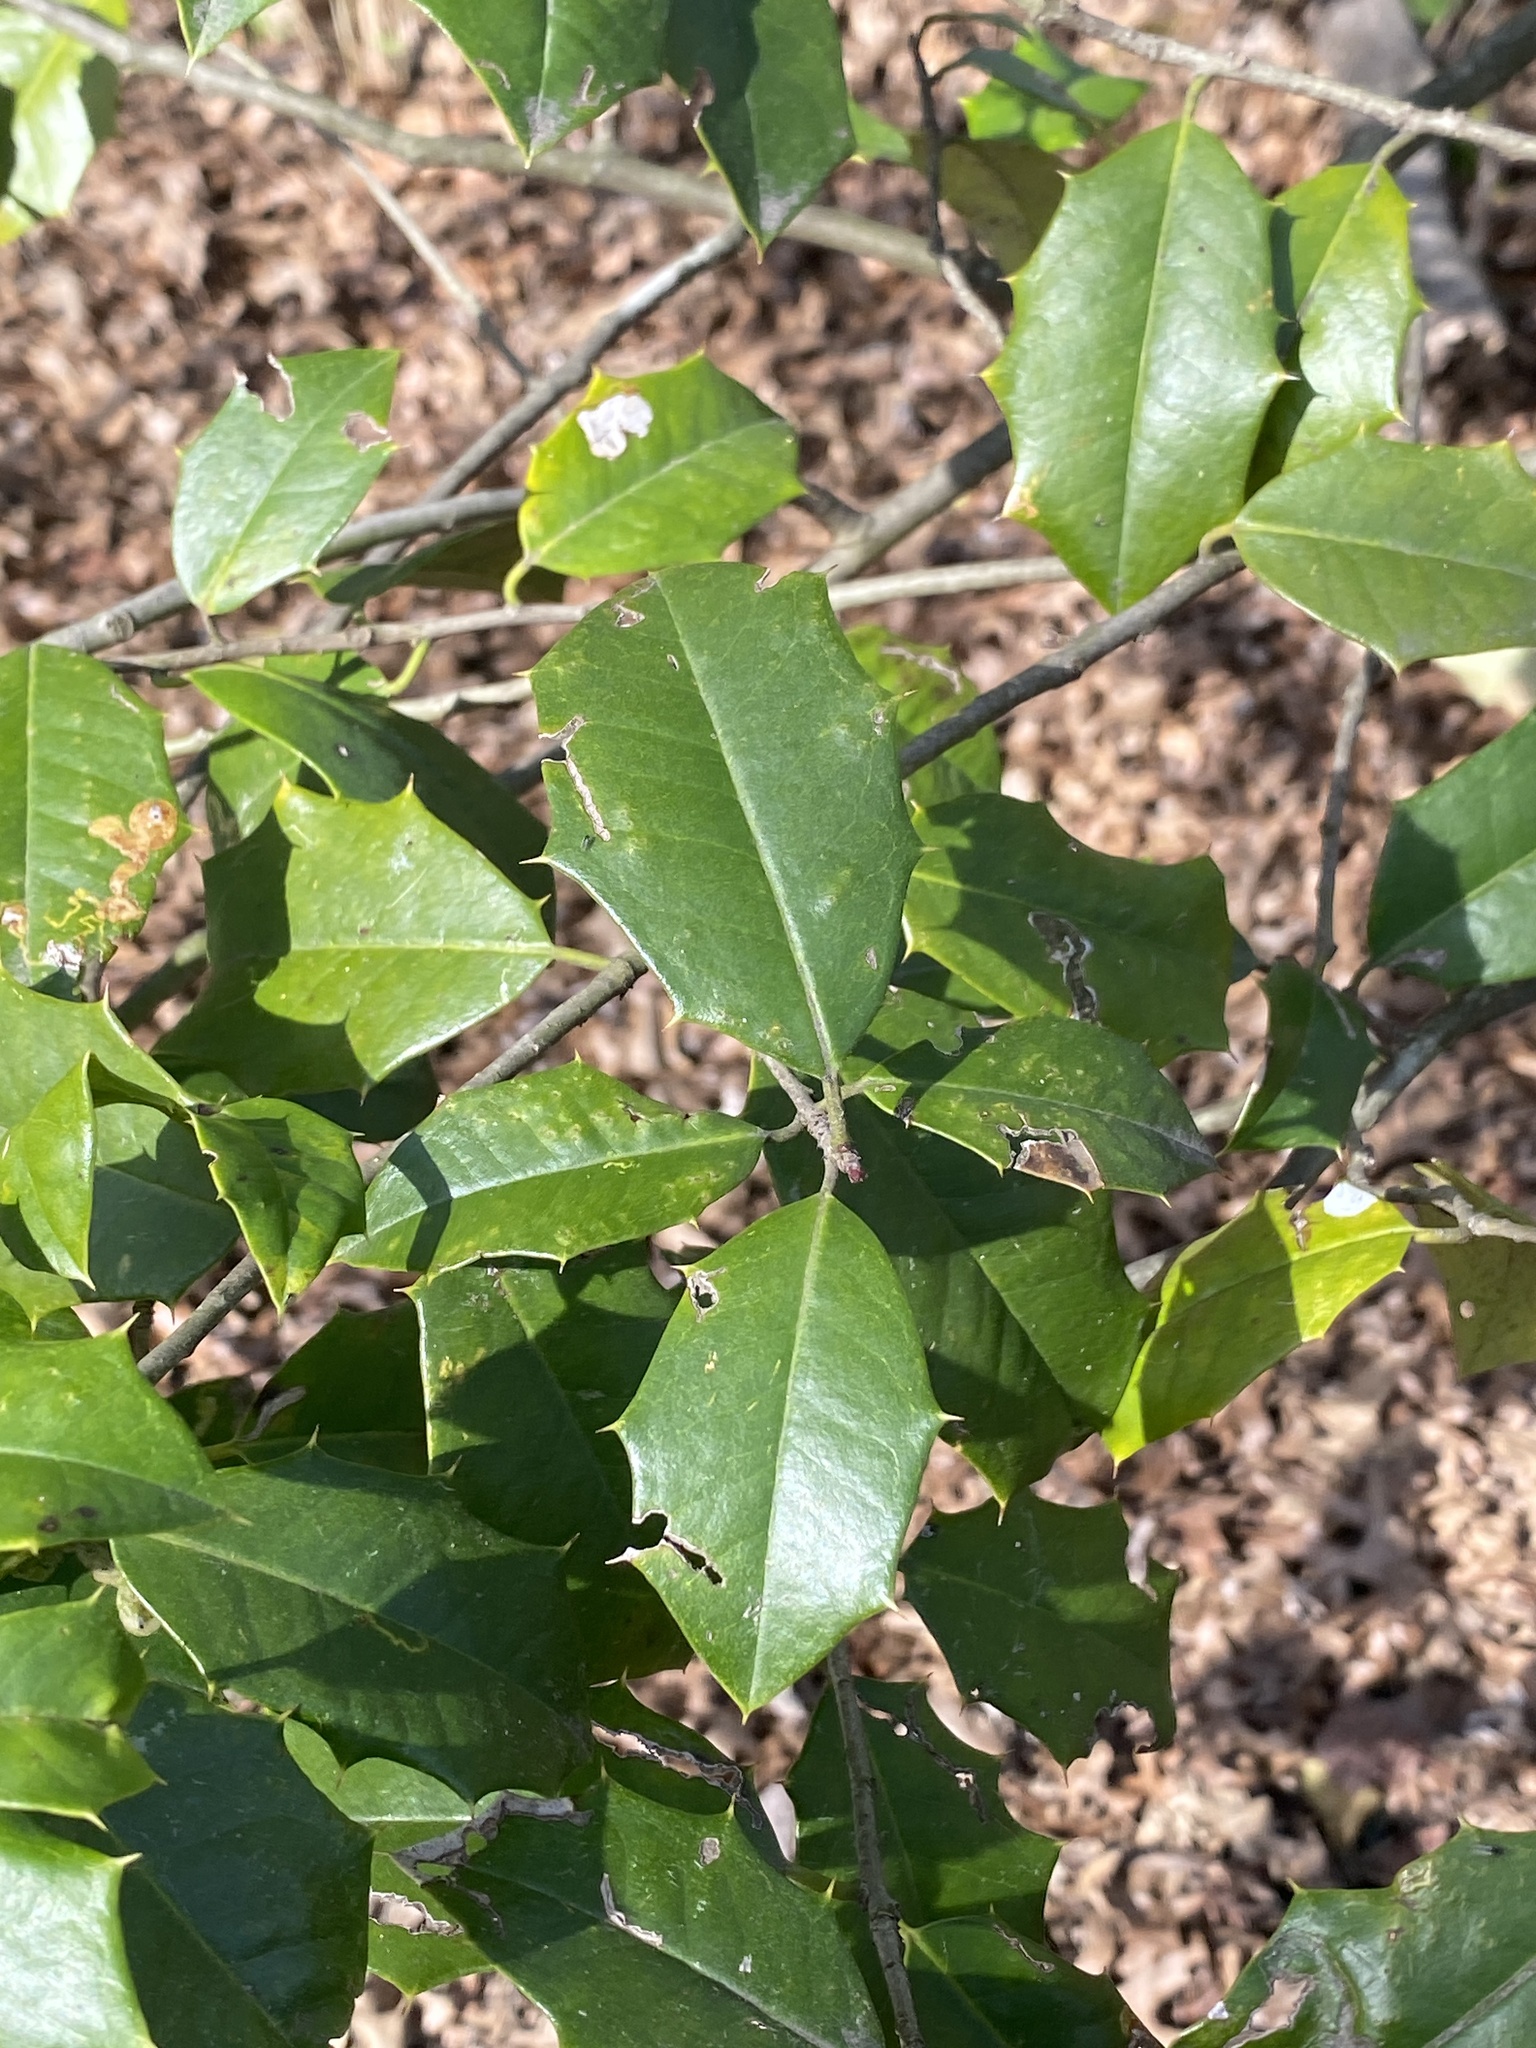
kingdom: Plantae
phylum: Tracheophyta
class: Magnoliopsida
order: Aquifoliales
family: Aquifoliaceae
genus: Ilex
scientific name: Ilex opaca
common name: American holly
